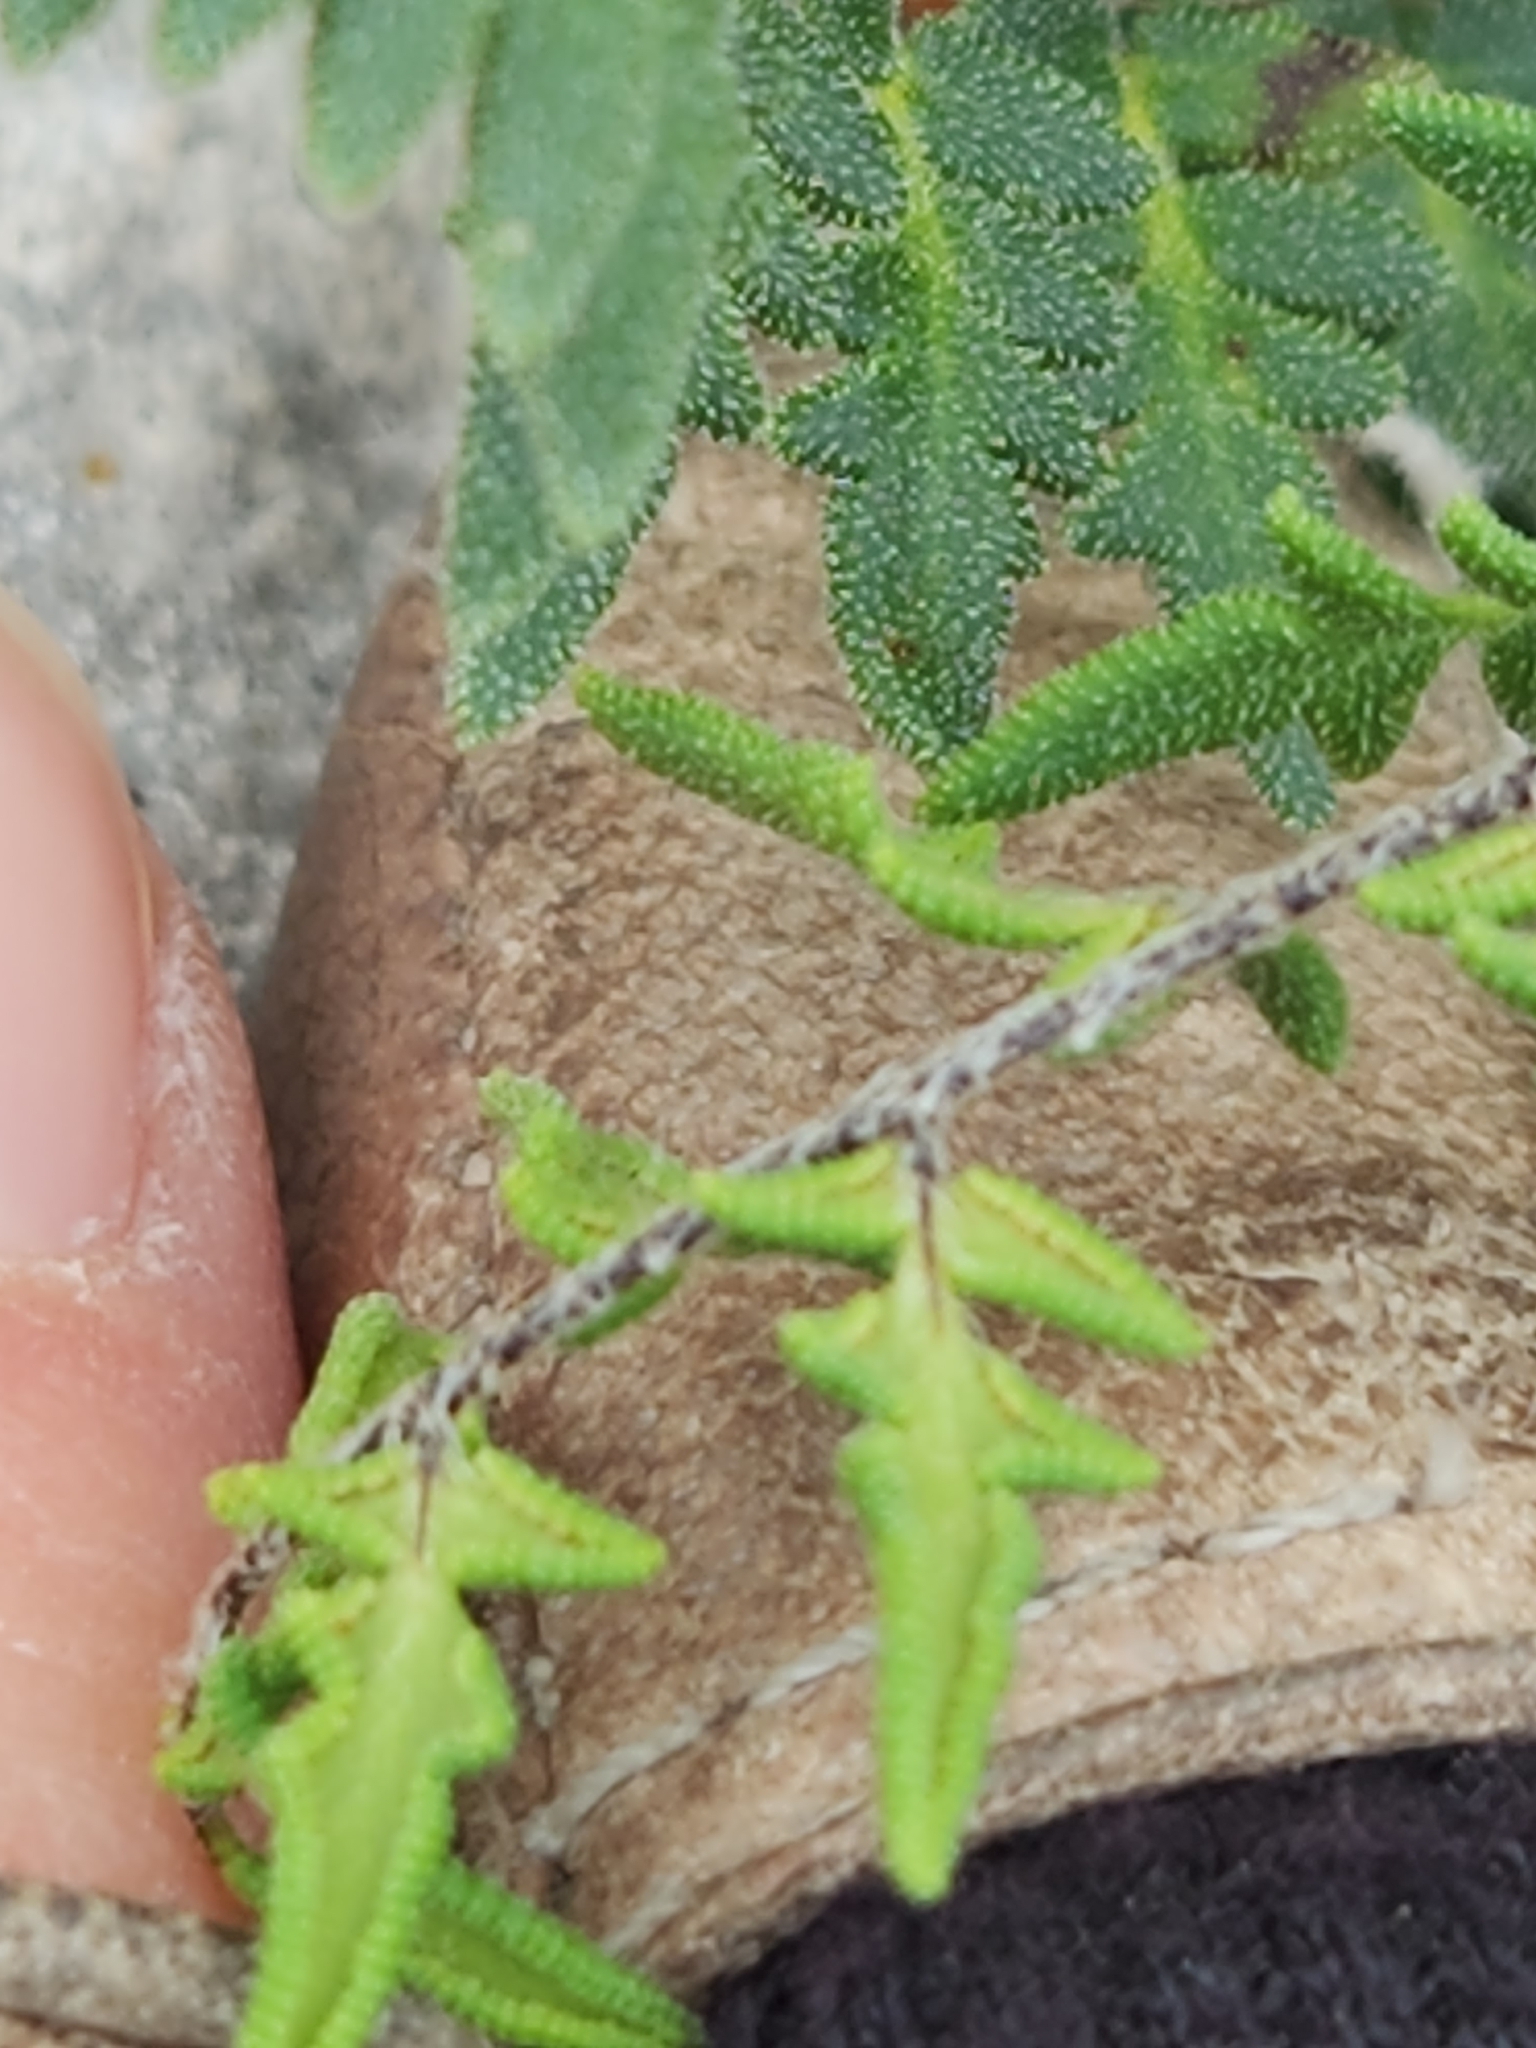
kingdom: Plantae
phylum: Tracheophyta
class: Polypodiopsida
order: Polypodiales
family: Pteridaceae
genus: Myriopteris
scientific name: Myriopteris scabra
